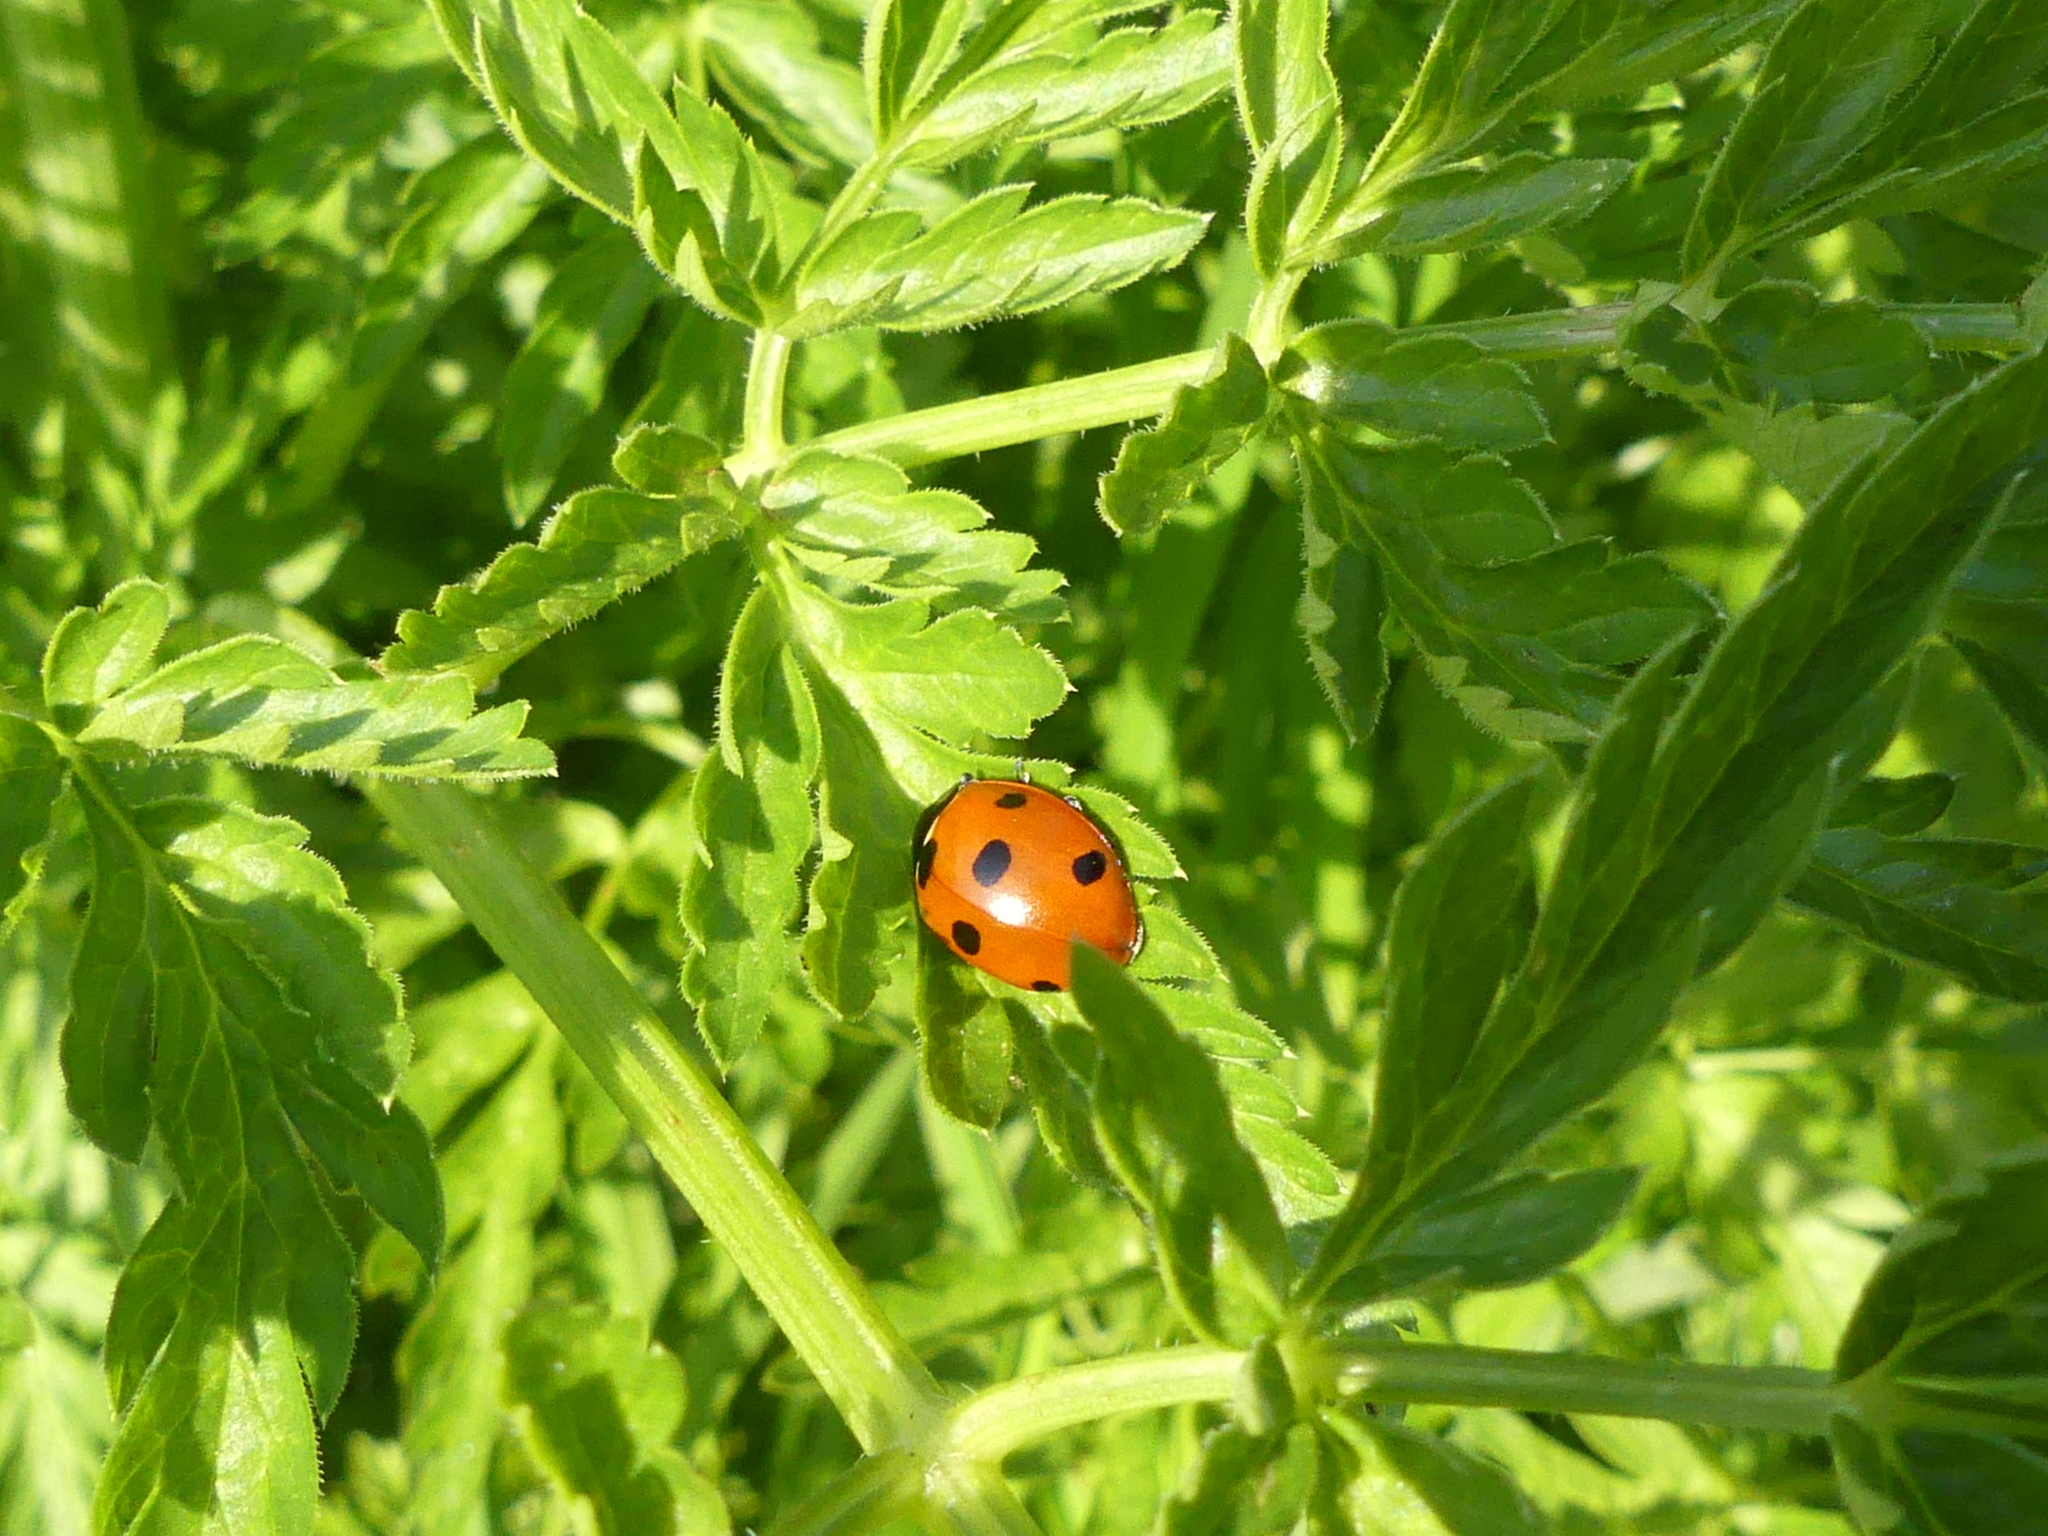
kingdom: Animalia
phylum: Arthropoda
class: Insecta
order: Coleoptera
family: Coccinellidae
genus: Coccinella
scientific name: Coccinella septempunctata
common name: Sevenspotted lady beetle
